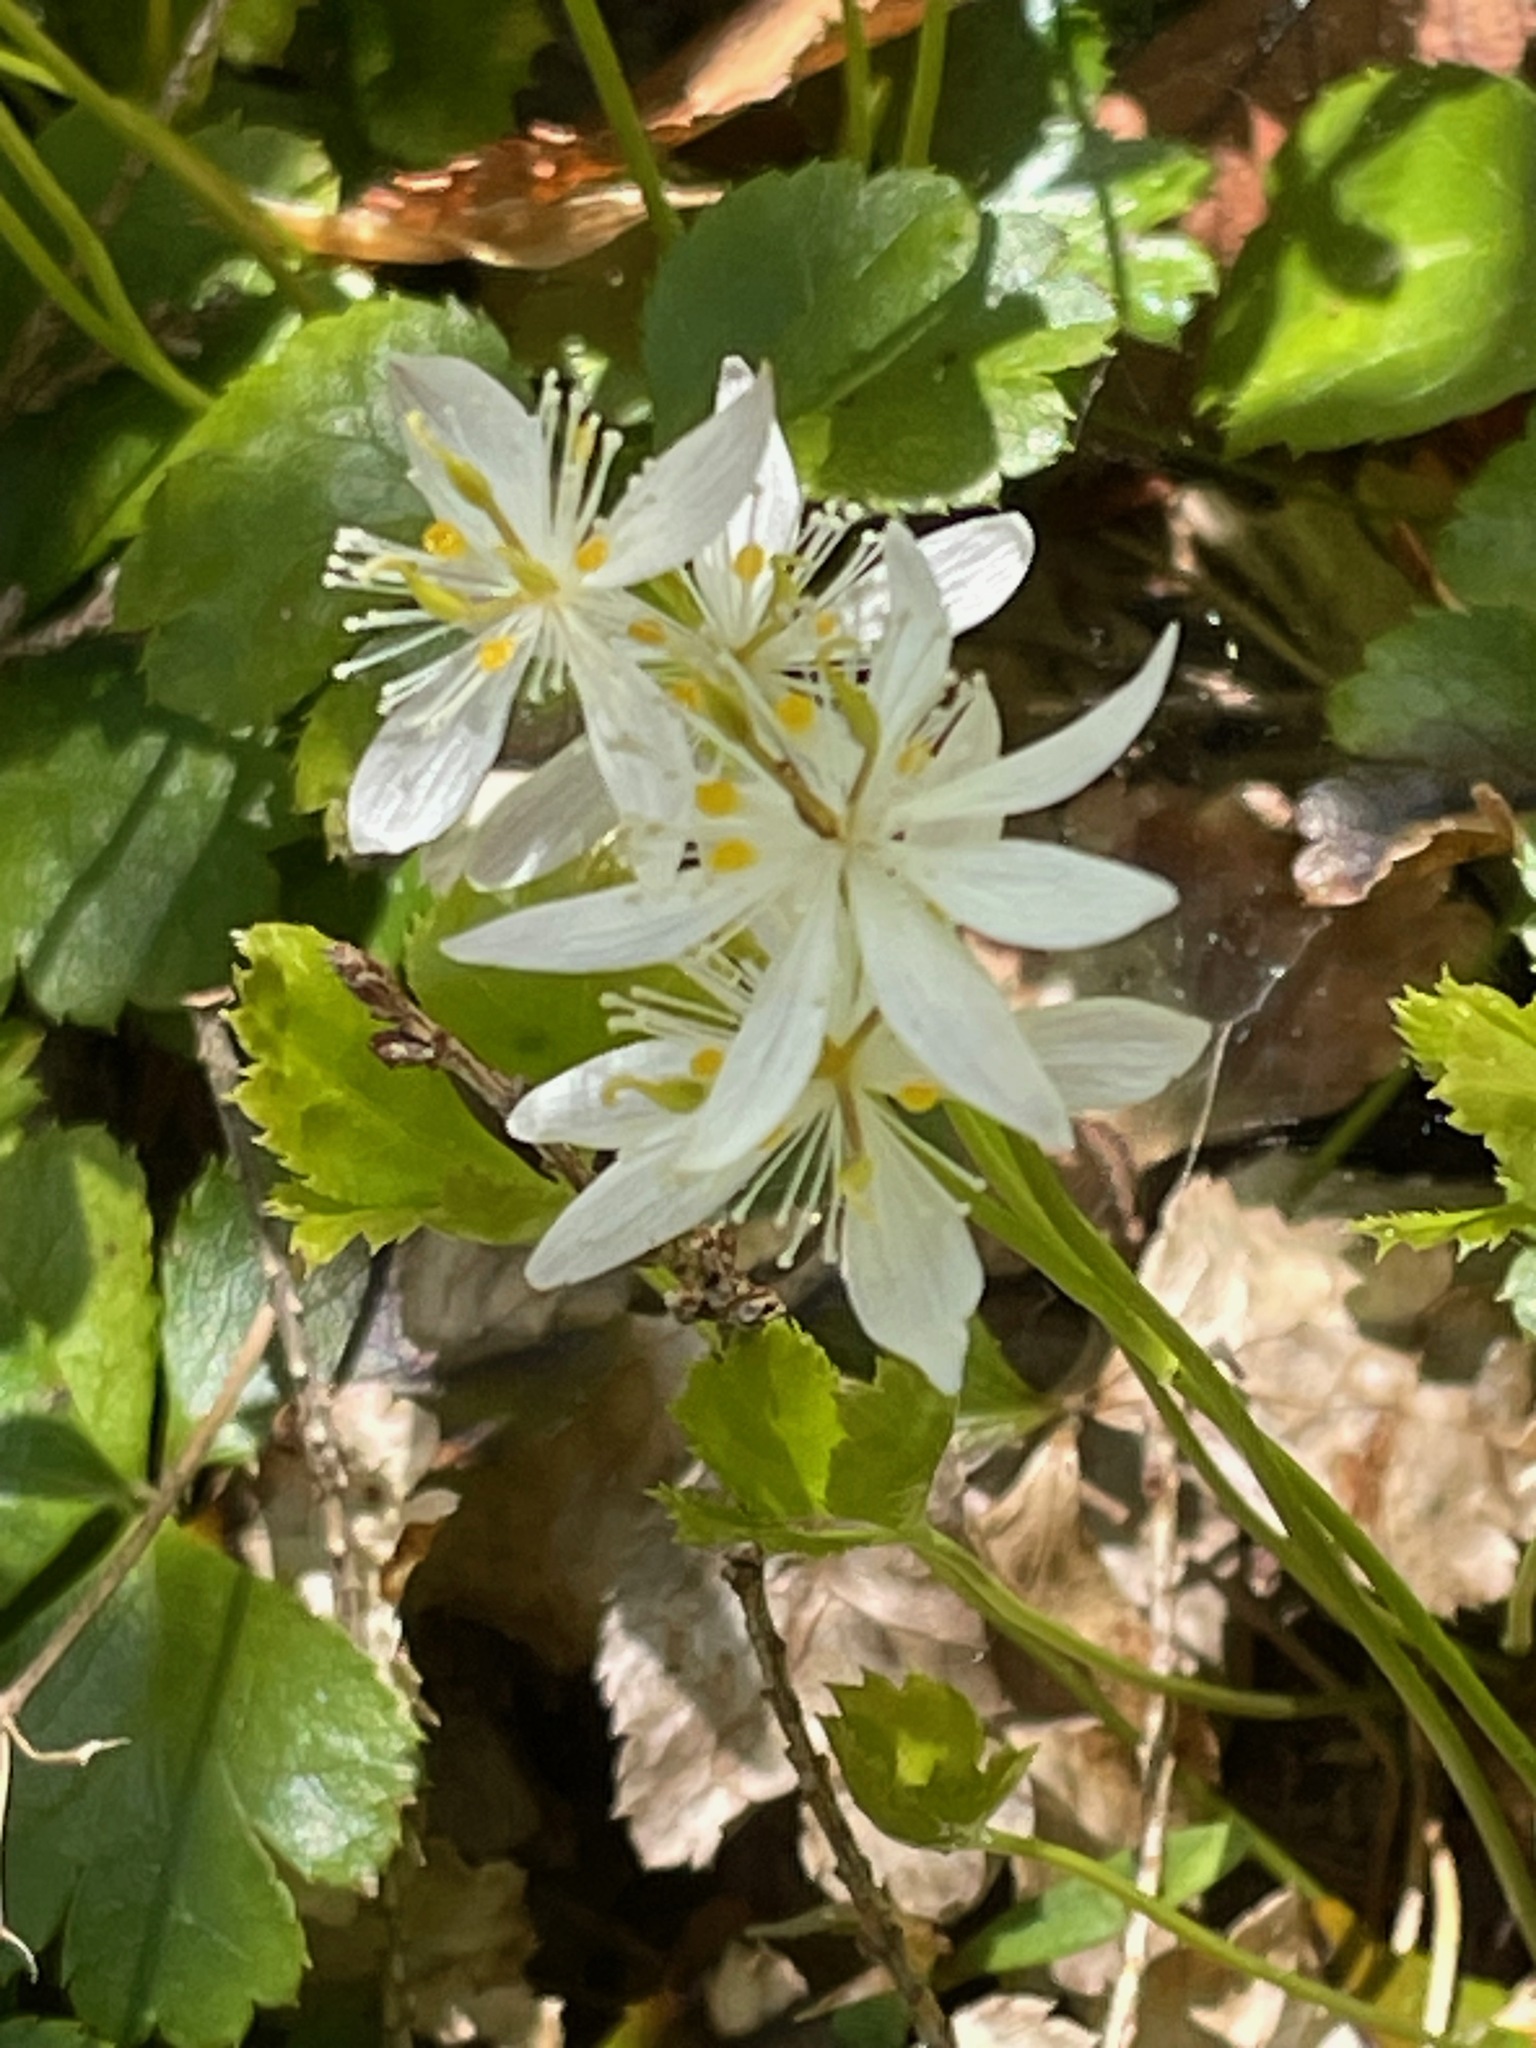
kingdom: Plantae
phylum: Tracheophyta
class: Magnoliopsida
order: Ranunculales
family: Ranunculaceae
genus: Coptis
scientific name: Coptis trifolia
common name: Canker-root
